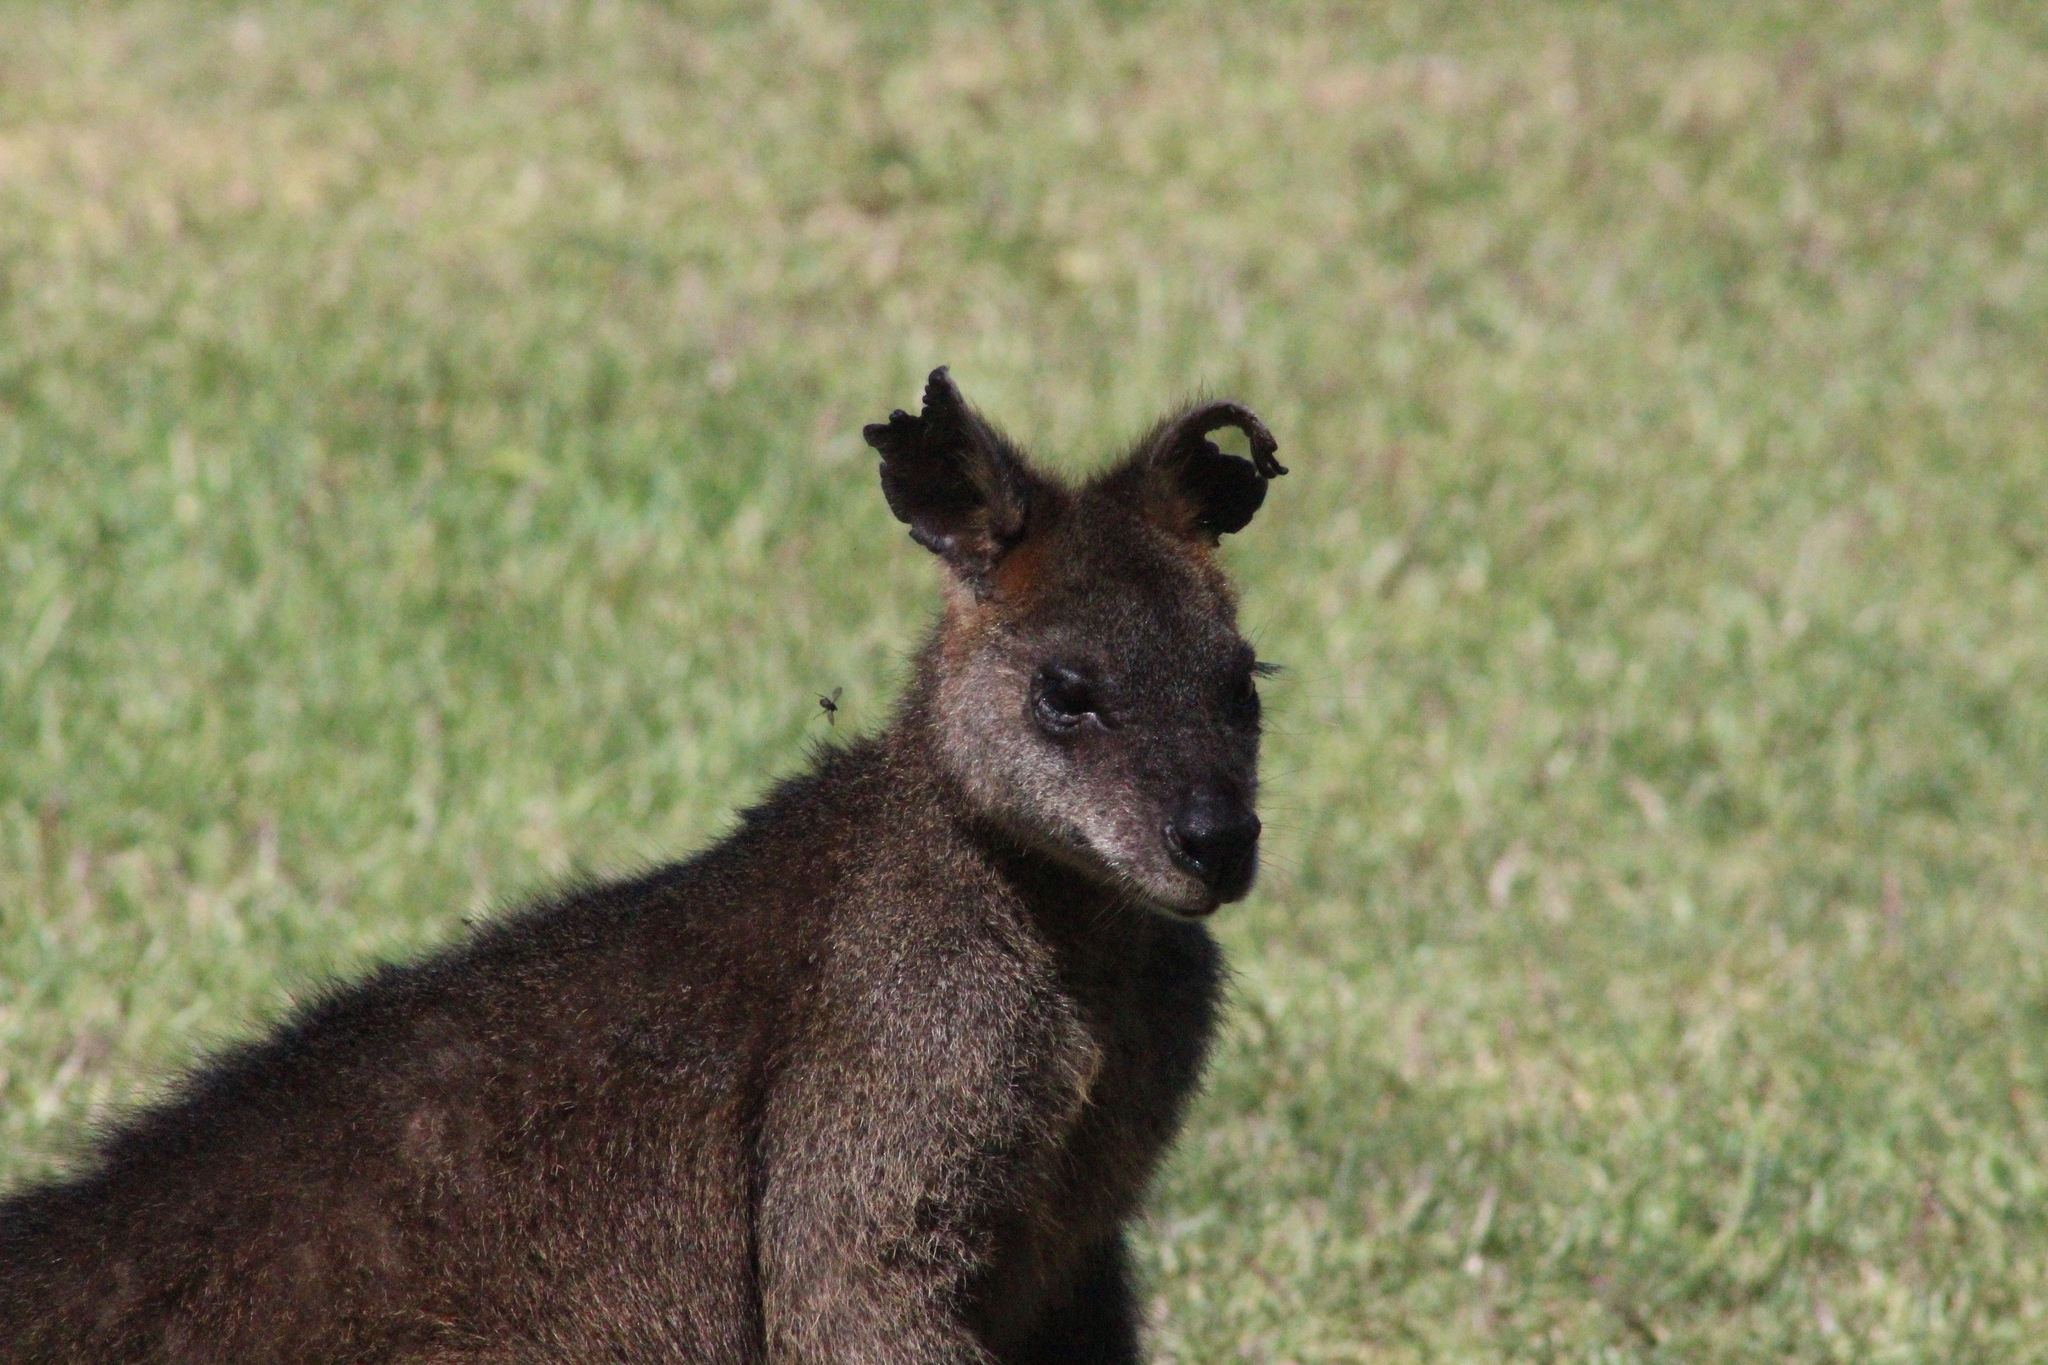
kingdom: Animalia
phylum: Chordata
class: Mammalia
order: Diprotodontia
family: Macropodidae
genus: Wallabia
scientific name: Wallabia bicolor
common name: Swamp wallaby
